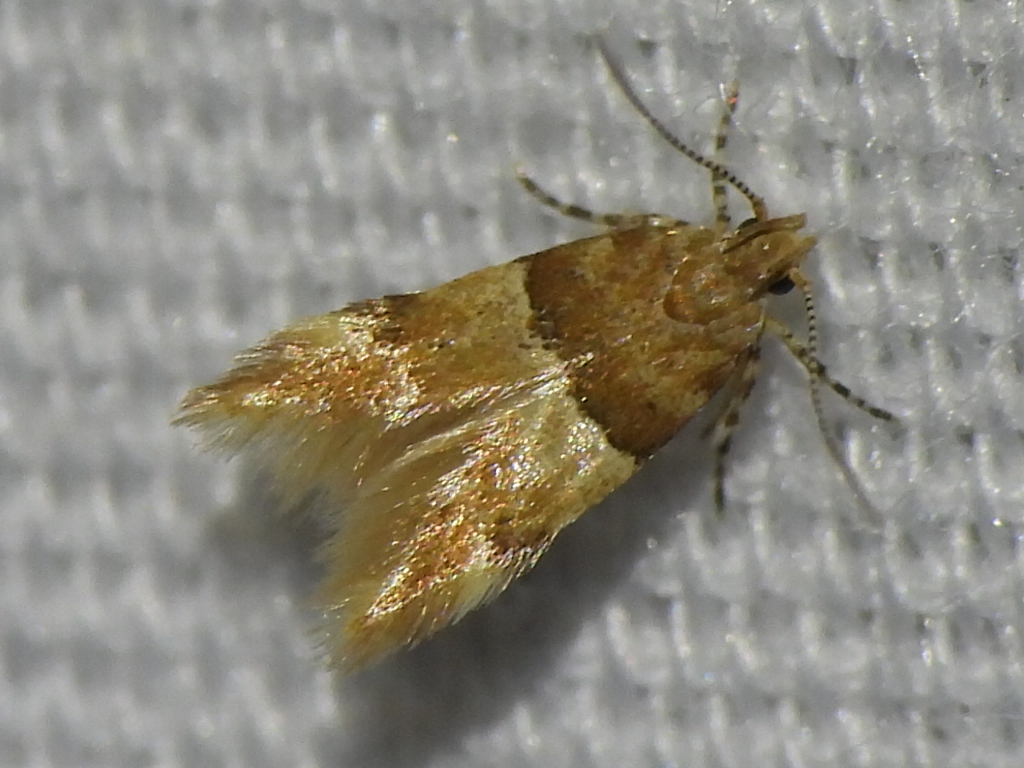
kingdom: Animalia
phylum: Arthropoda
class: Insecta
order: Lepidoptera
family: Gelechiidae
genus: Theisoa
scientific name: Theisoa constrictella
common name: Constricted twirler
